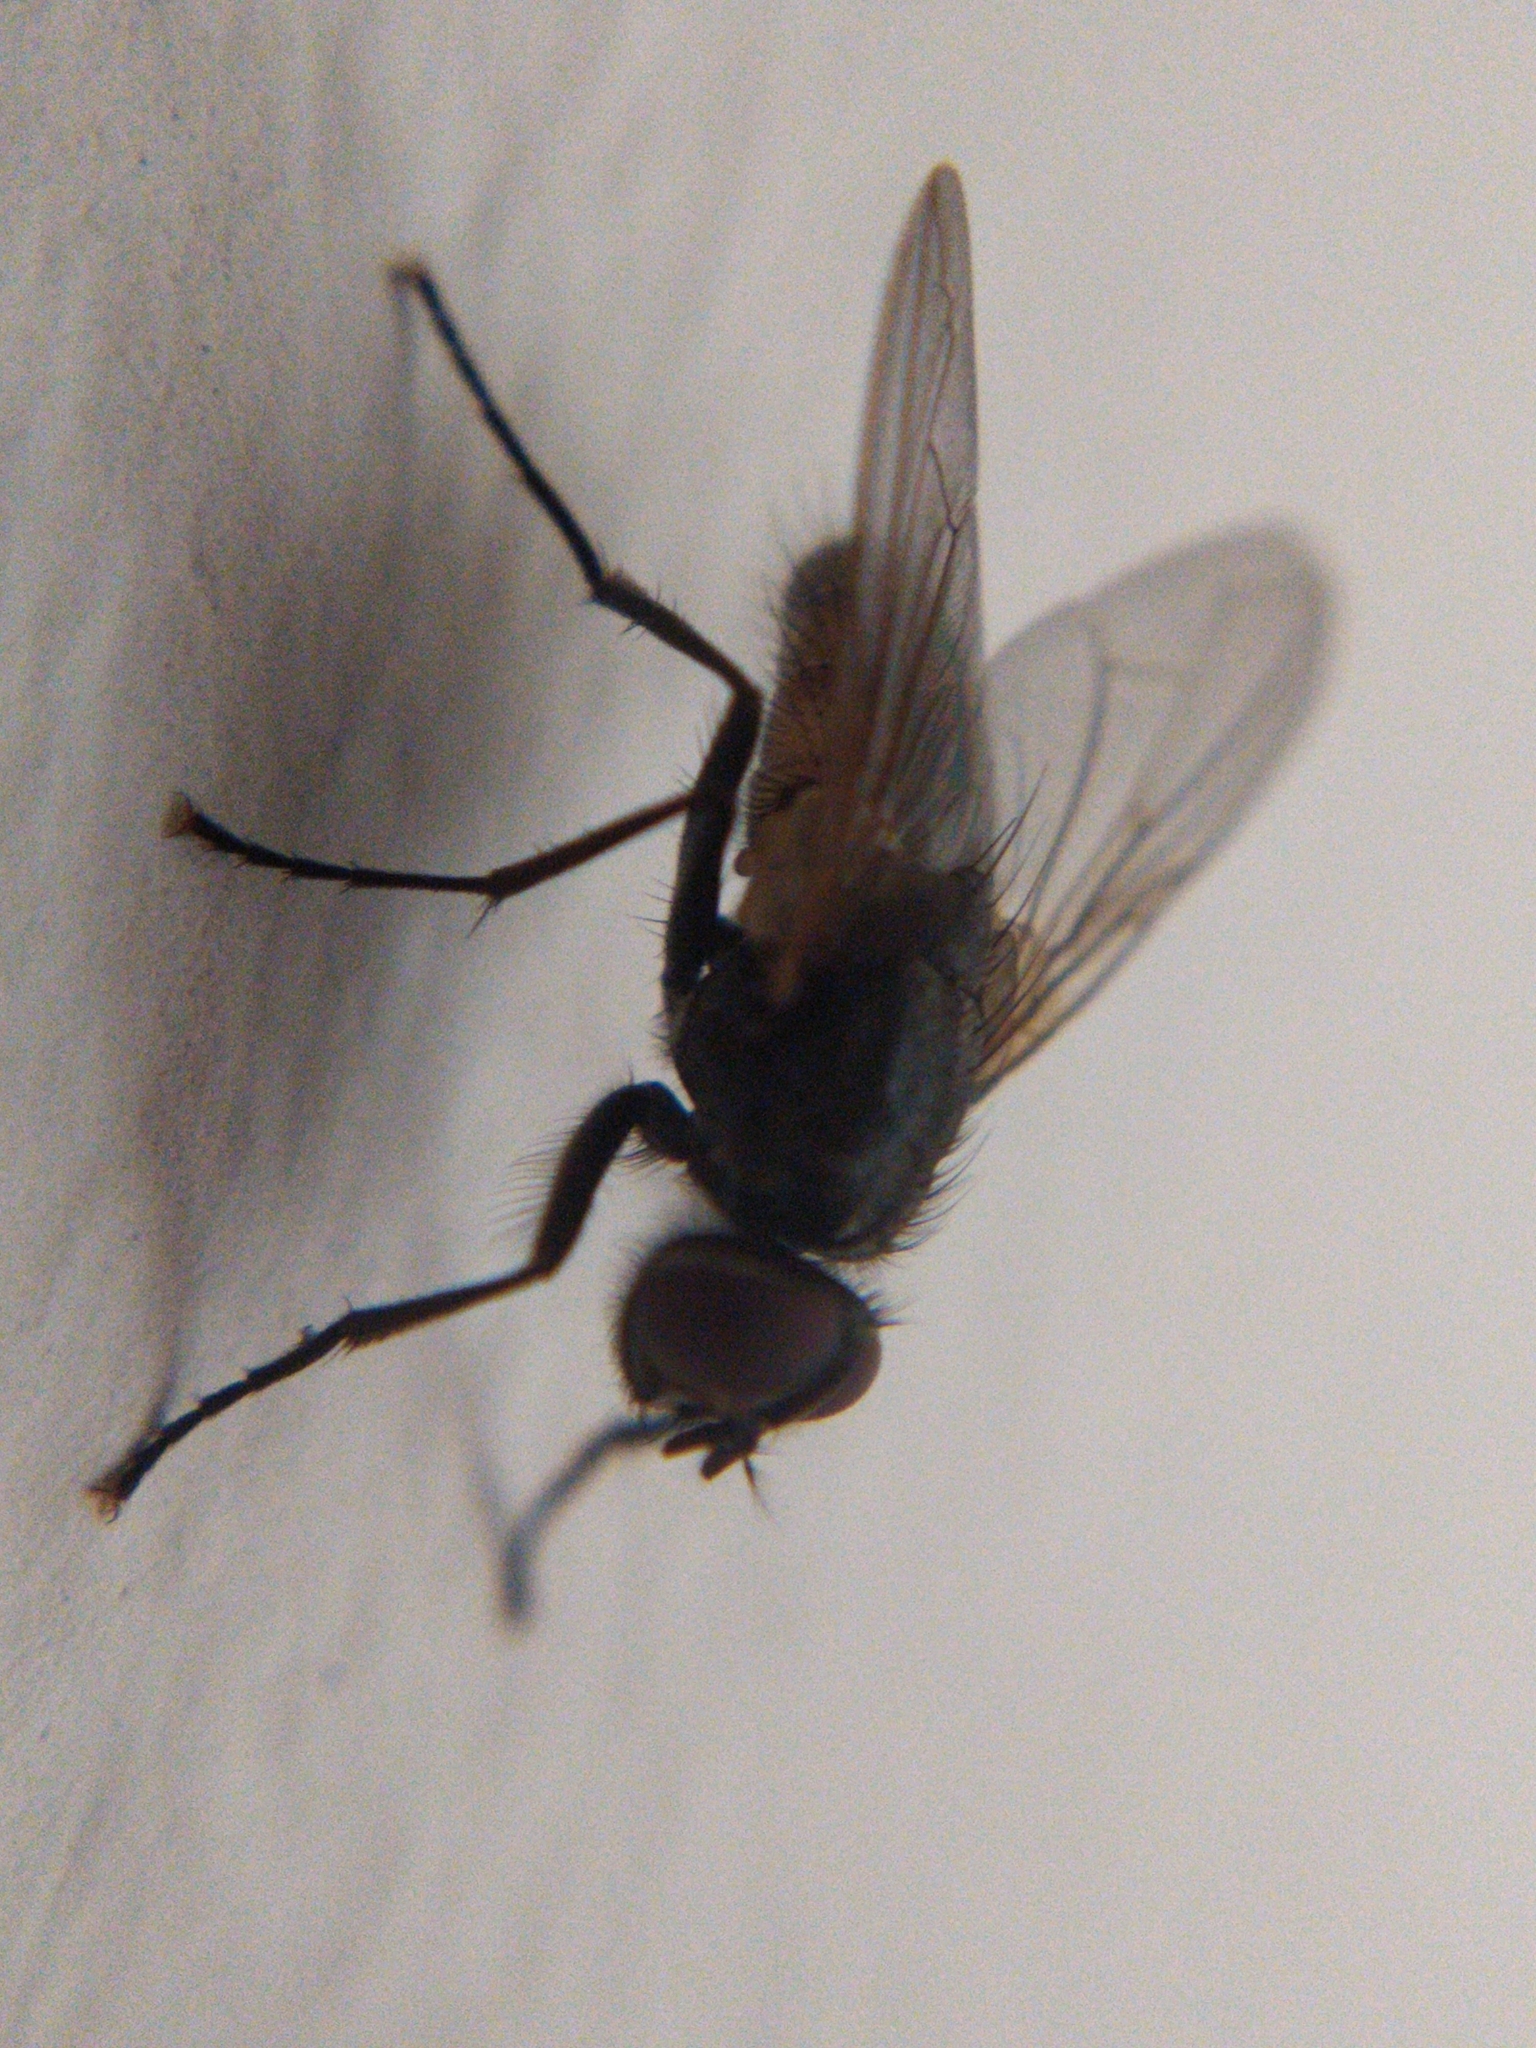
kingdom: Animalia
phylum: Arthropoda
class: Insecta
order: Diptera
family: Muscidae
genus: Musca
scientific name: Musca domestica
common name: House fly
